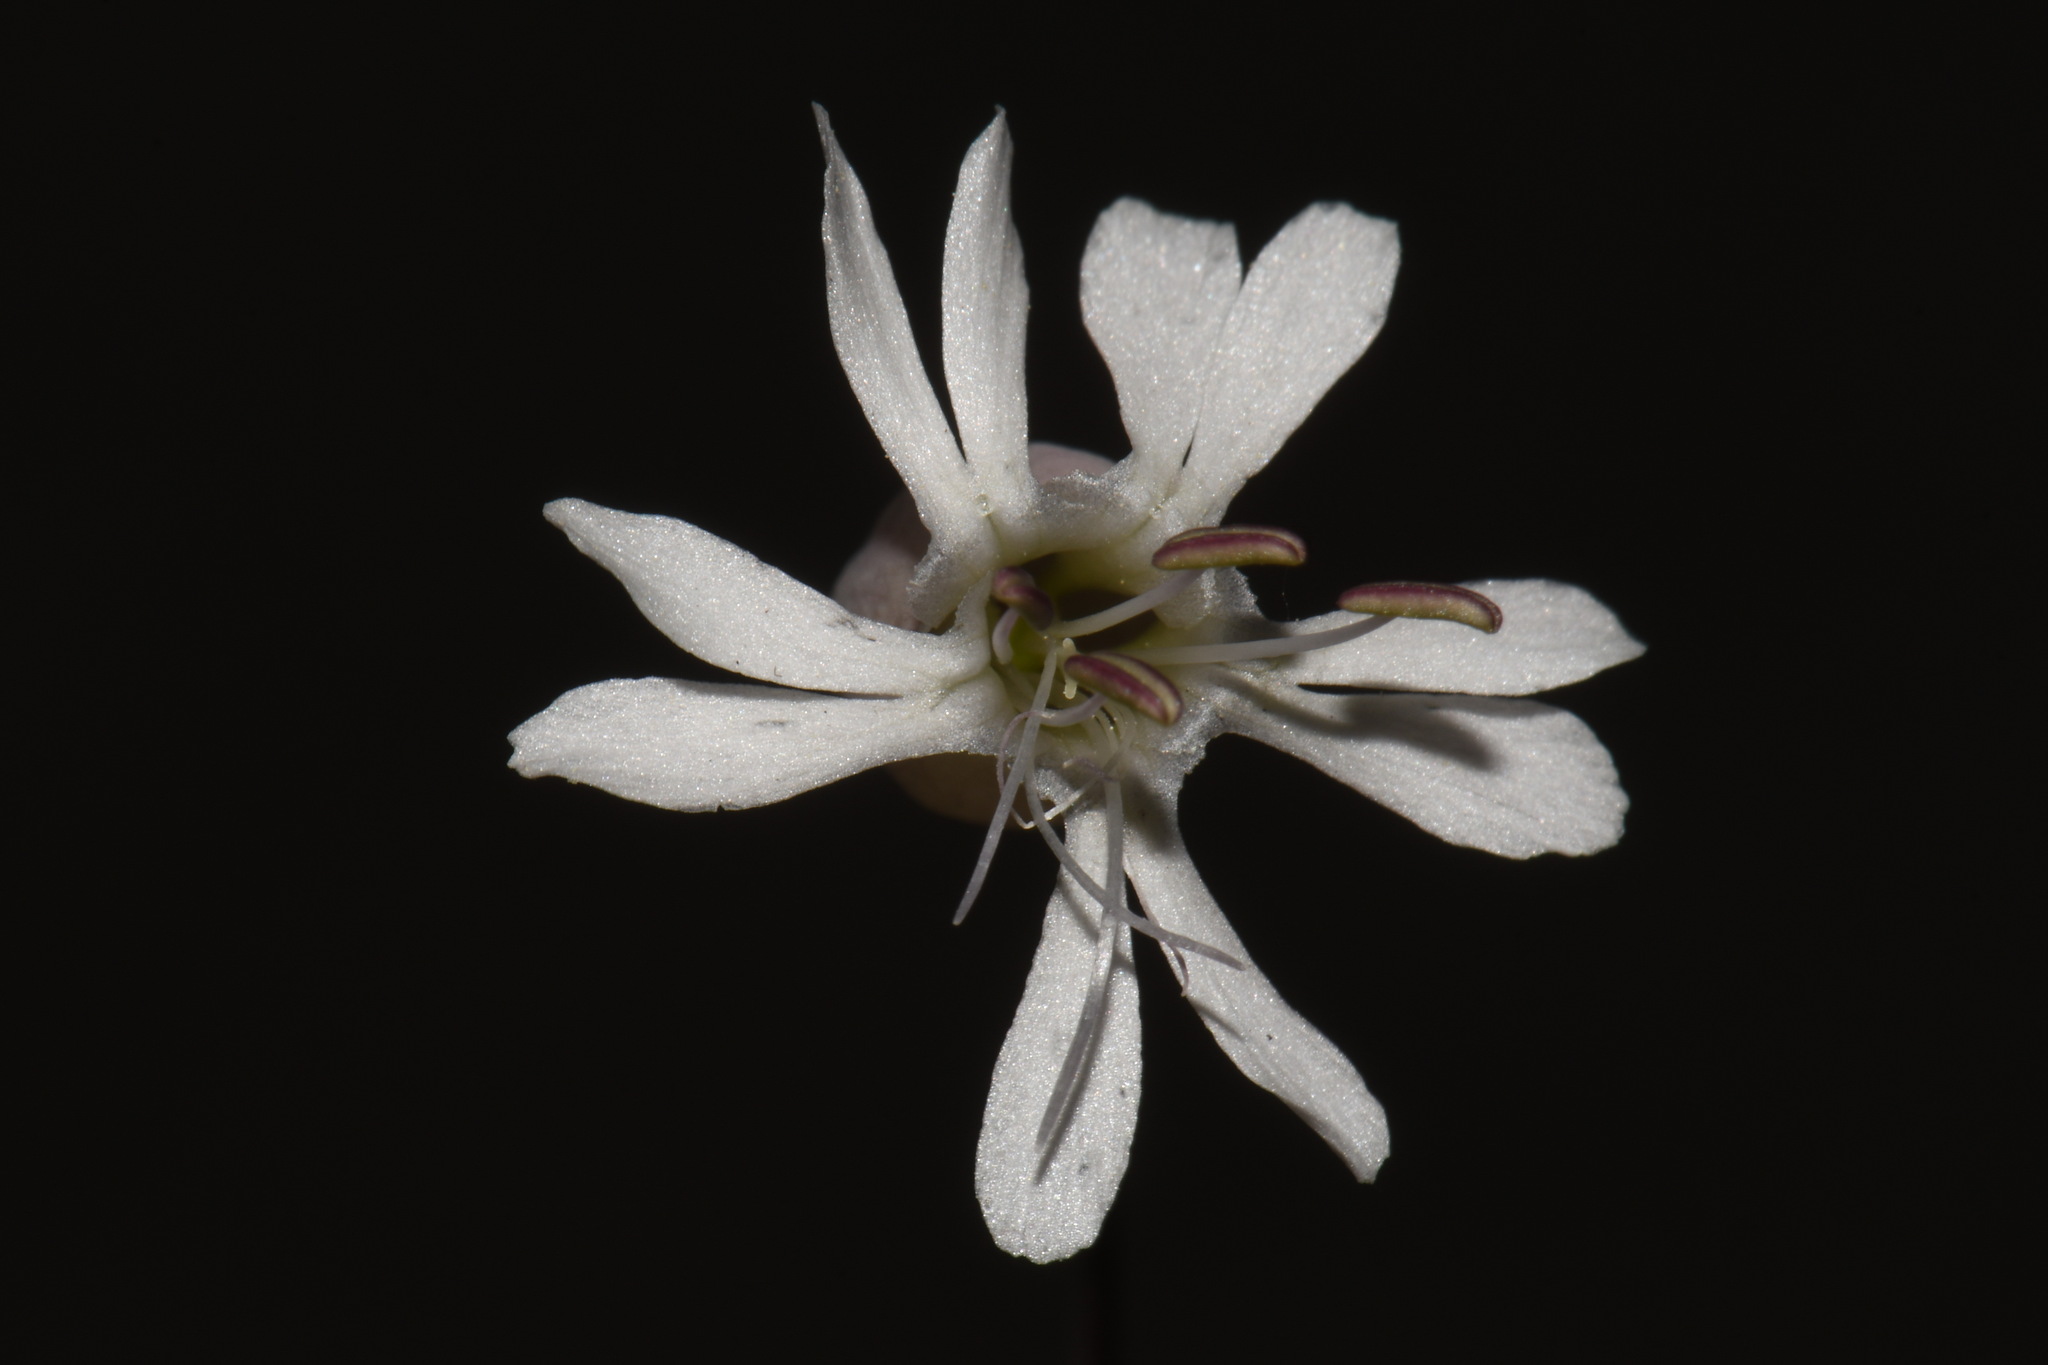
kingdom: Plantae
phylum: Tracheophyta
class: Magnoliopsida
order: Caryophyllales
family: Caryophyllaceae
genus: Silene
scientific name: Silene vulgaris
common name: Bladder campion
